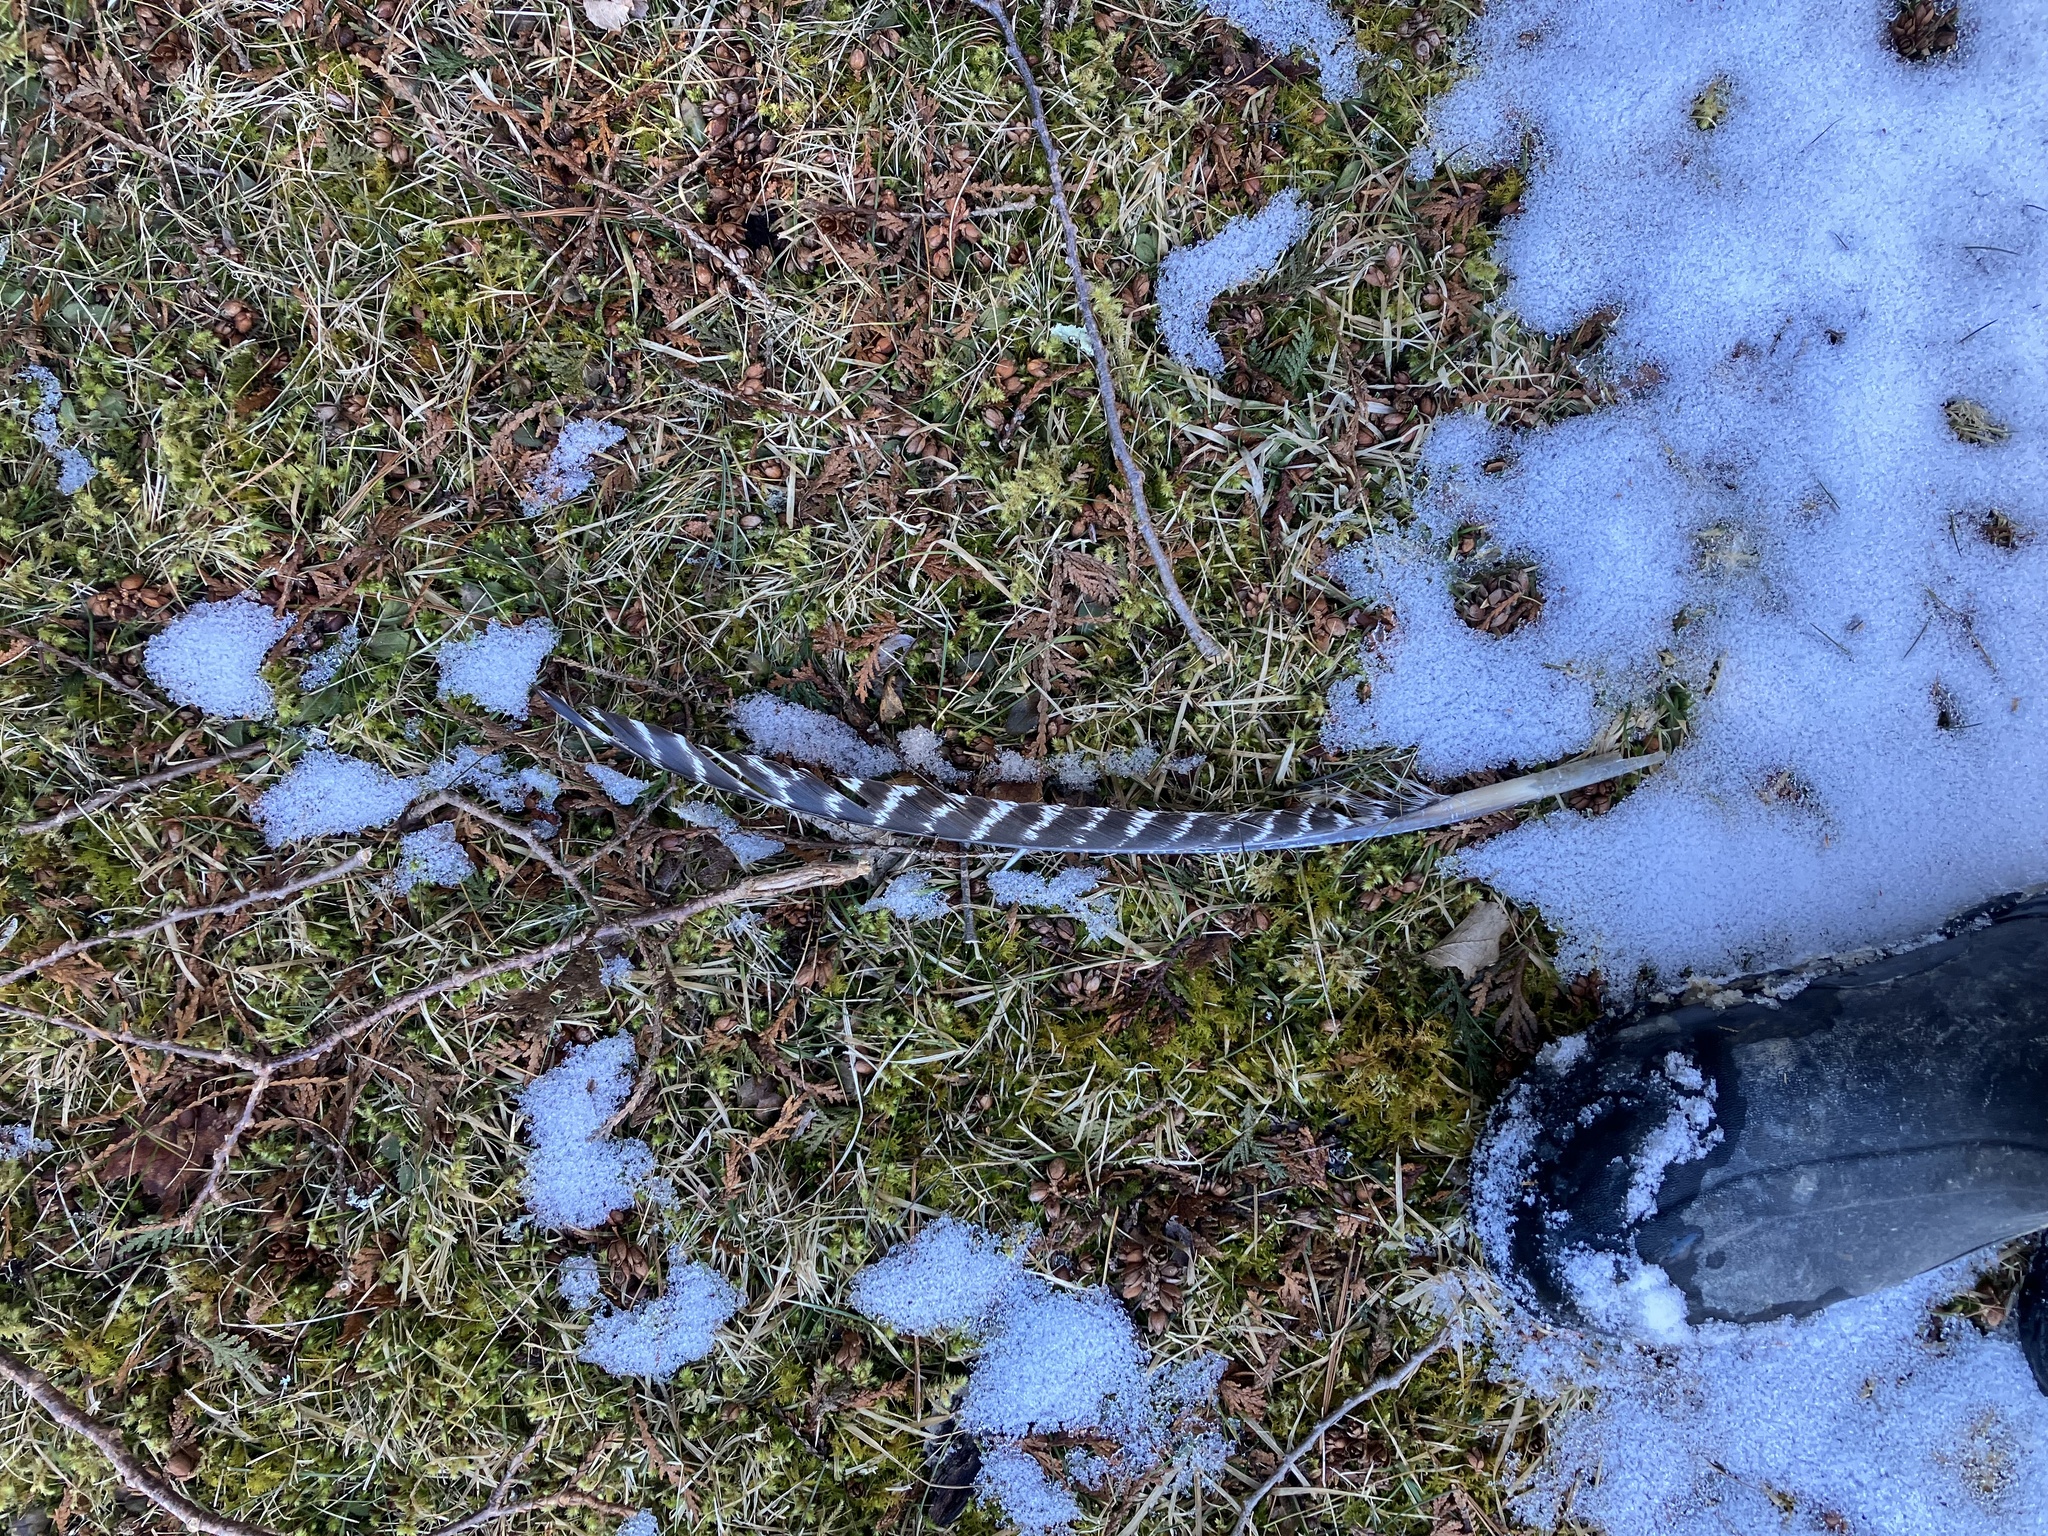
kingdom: Animalia
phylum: Chordata
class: Aves
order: Galliformes
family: Phasianidae
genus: Meleagris
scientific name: Meleagris gallopavo
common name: Wild turkey
